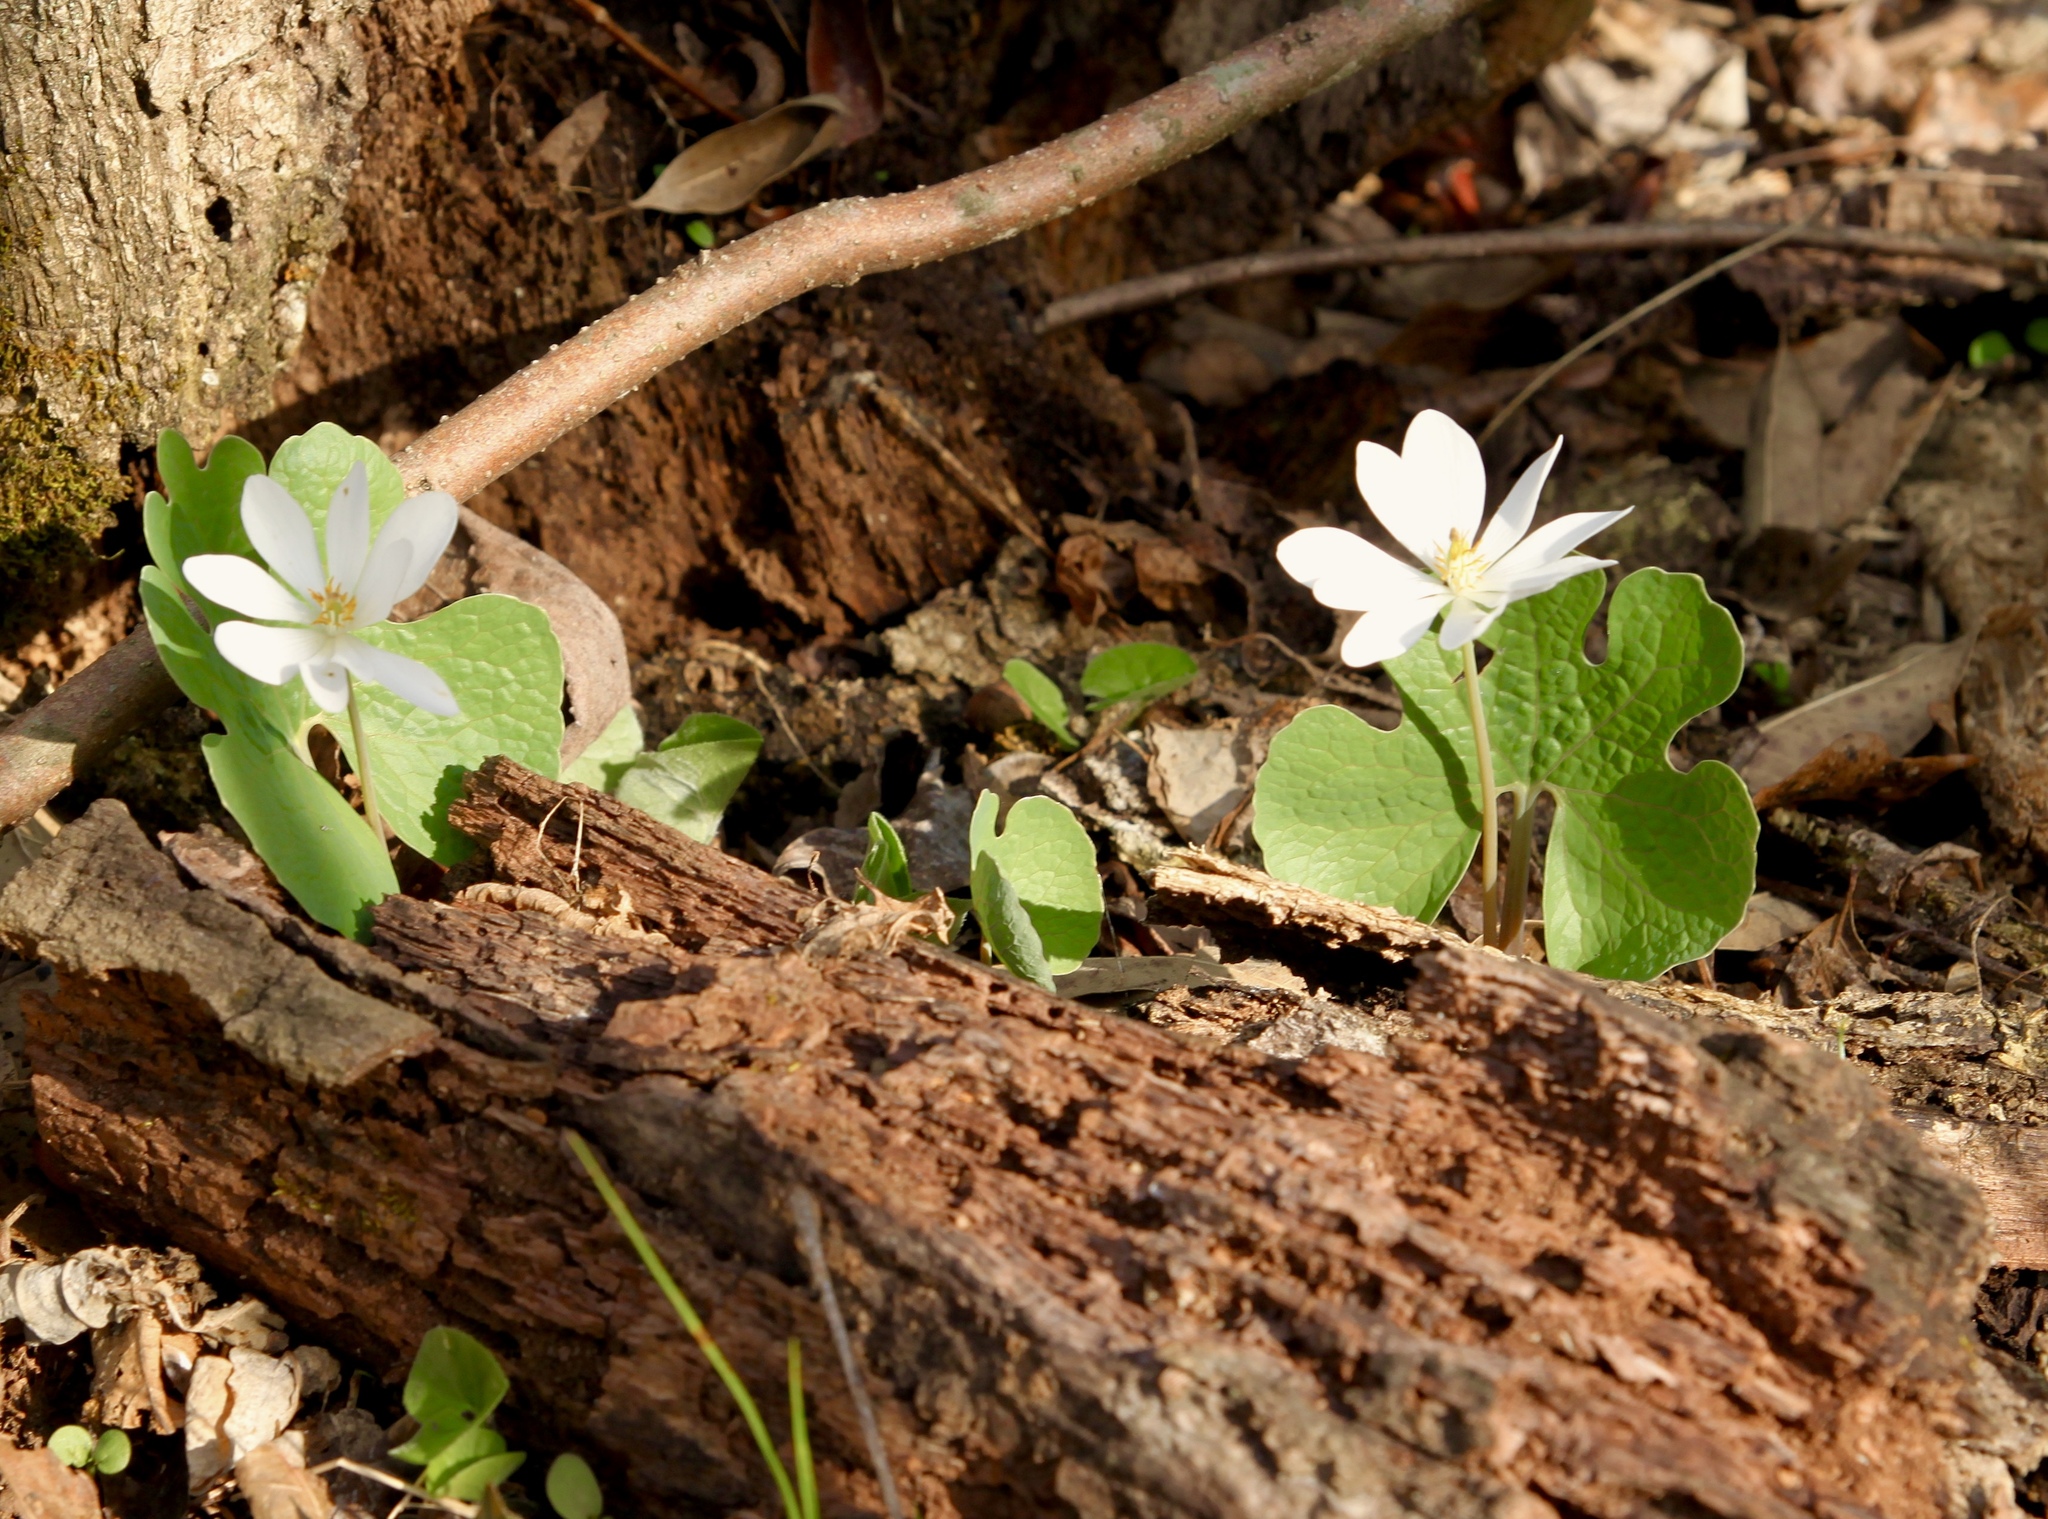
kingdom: Plantae
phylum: Tracheophyta
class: Magnoliopsida
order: Ranunculales
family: Papaveraceae
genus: Sanguinaria
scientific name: Sanguinaria canadensis
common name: Bloodroot
